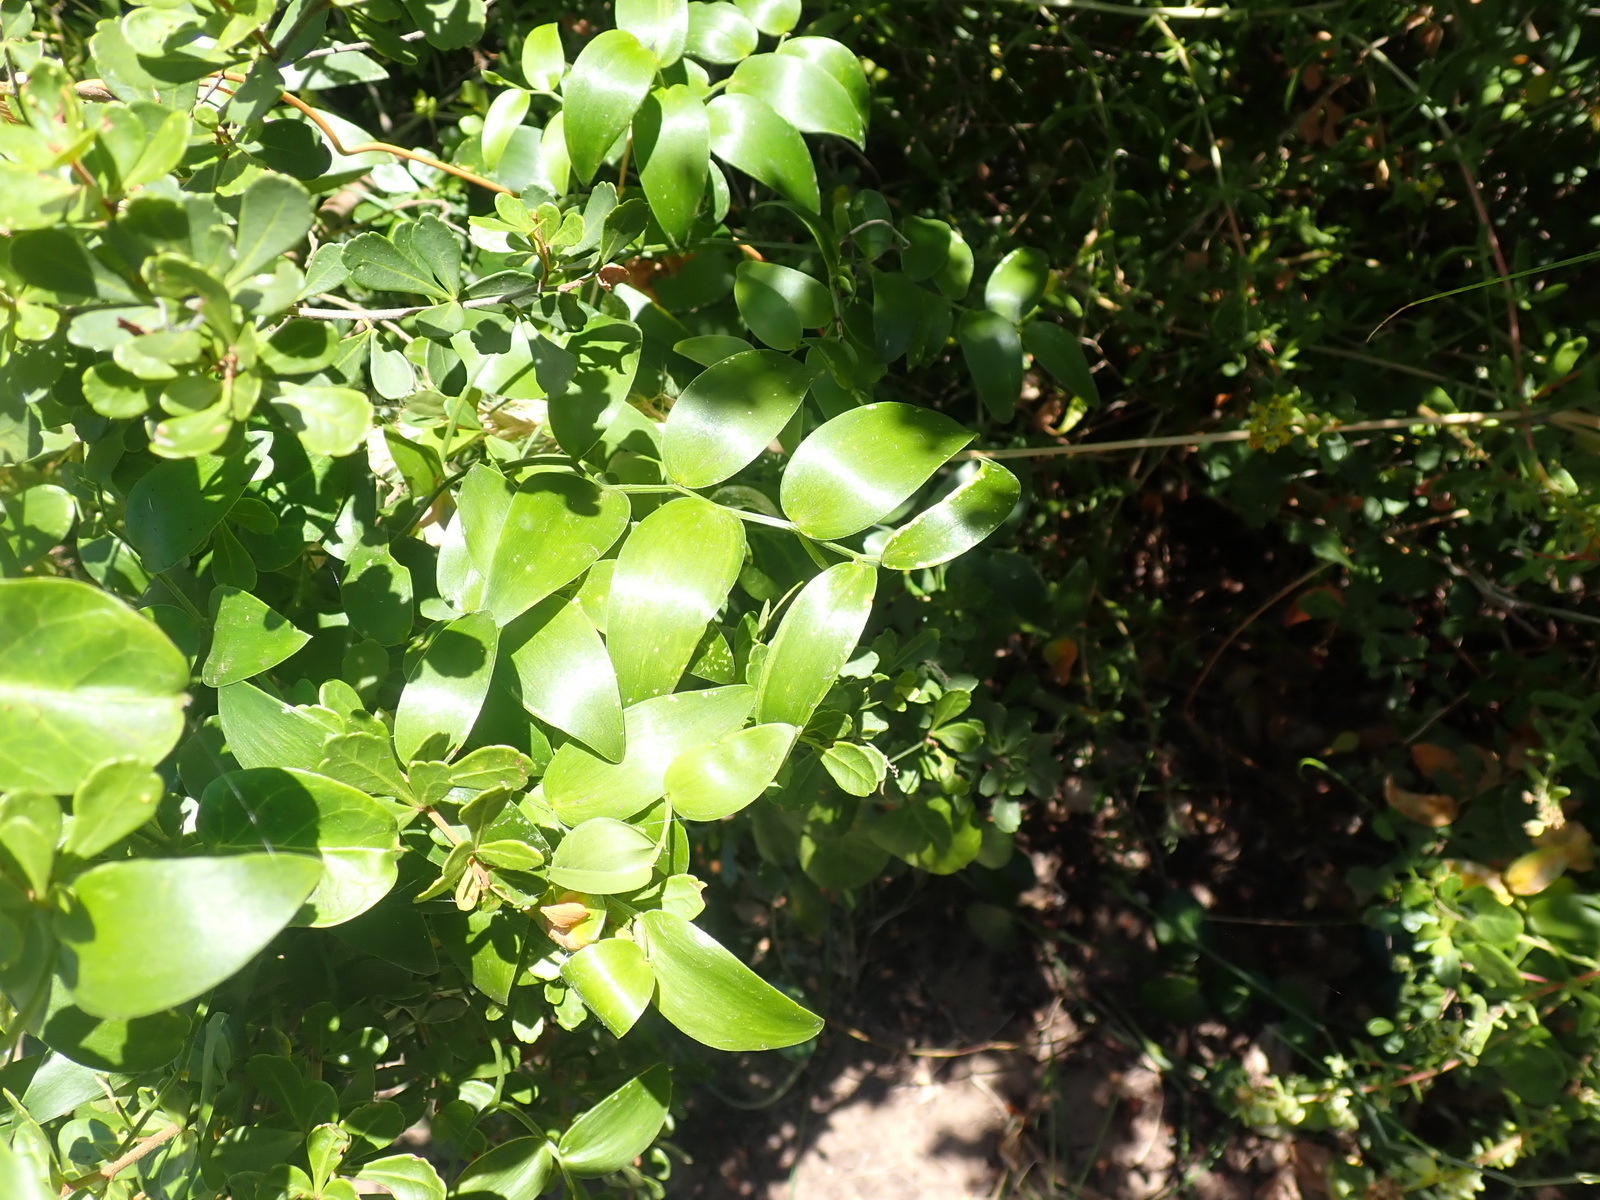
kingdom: Plantae
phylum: Tracheophyta
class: Liliopsida
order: Asparagales
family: Asparagaceae
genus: Asparagus
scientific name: Asparagus asparagoides
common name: African asparagus fern
